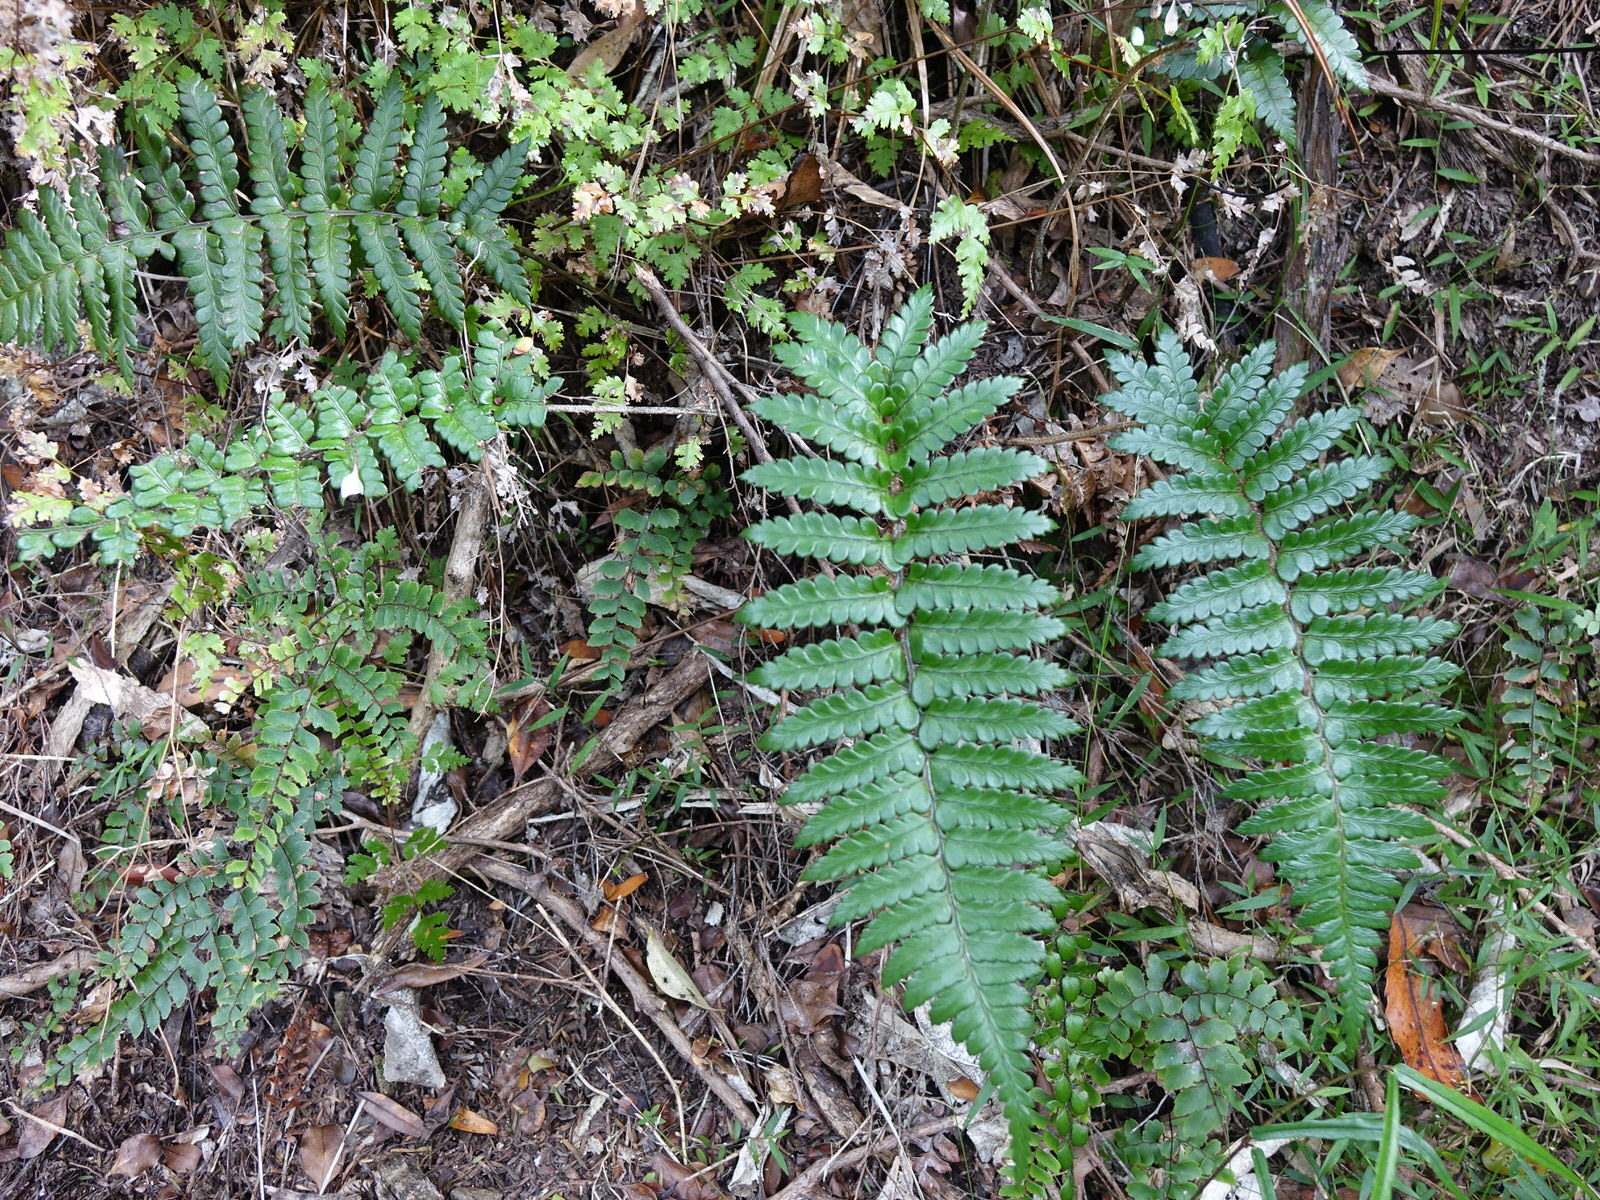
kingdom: Plantae
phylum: Tracheophyta
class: Polypodiopsida
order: Polypodiales
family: Dryopteridaceae
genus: Polystichum
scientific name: Polystichum wawranum
